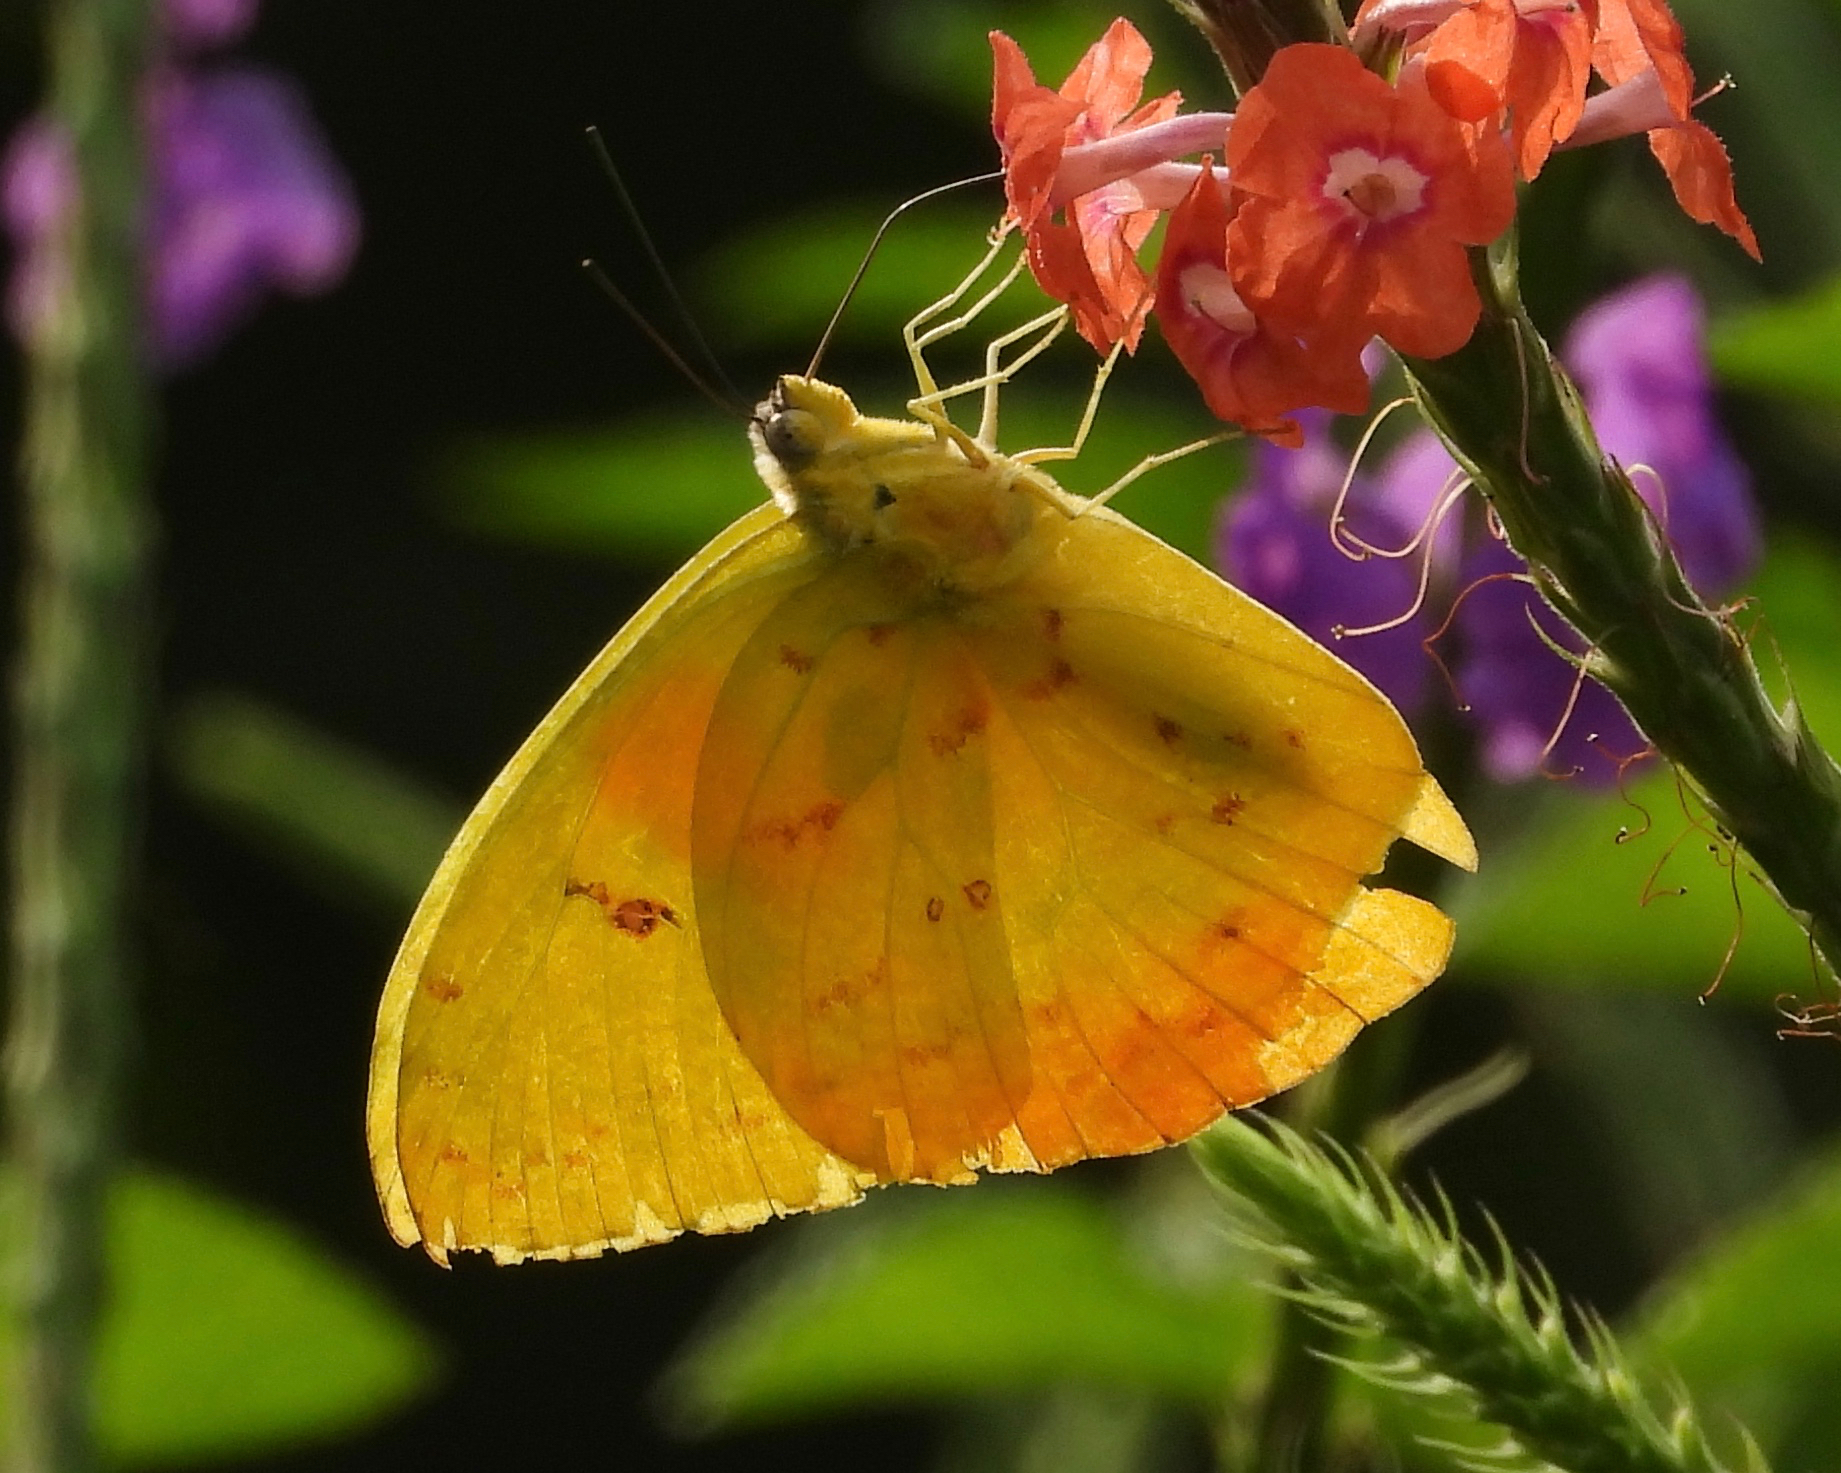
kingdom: Animalia
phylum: Arthropoda
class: Insecta
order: Lepidoptera
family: Pieridae
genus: Phoebis
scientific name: Phoebis philea
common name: Orange-barred giant sulphur
